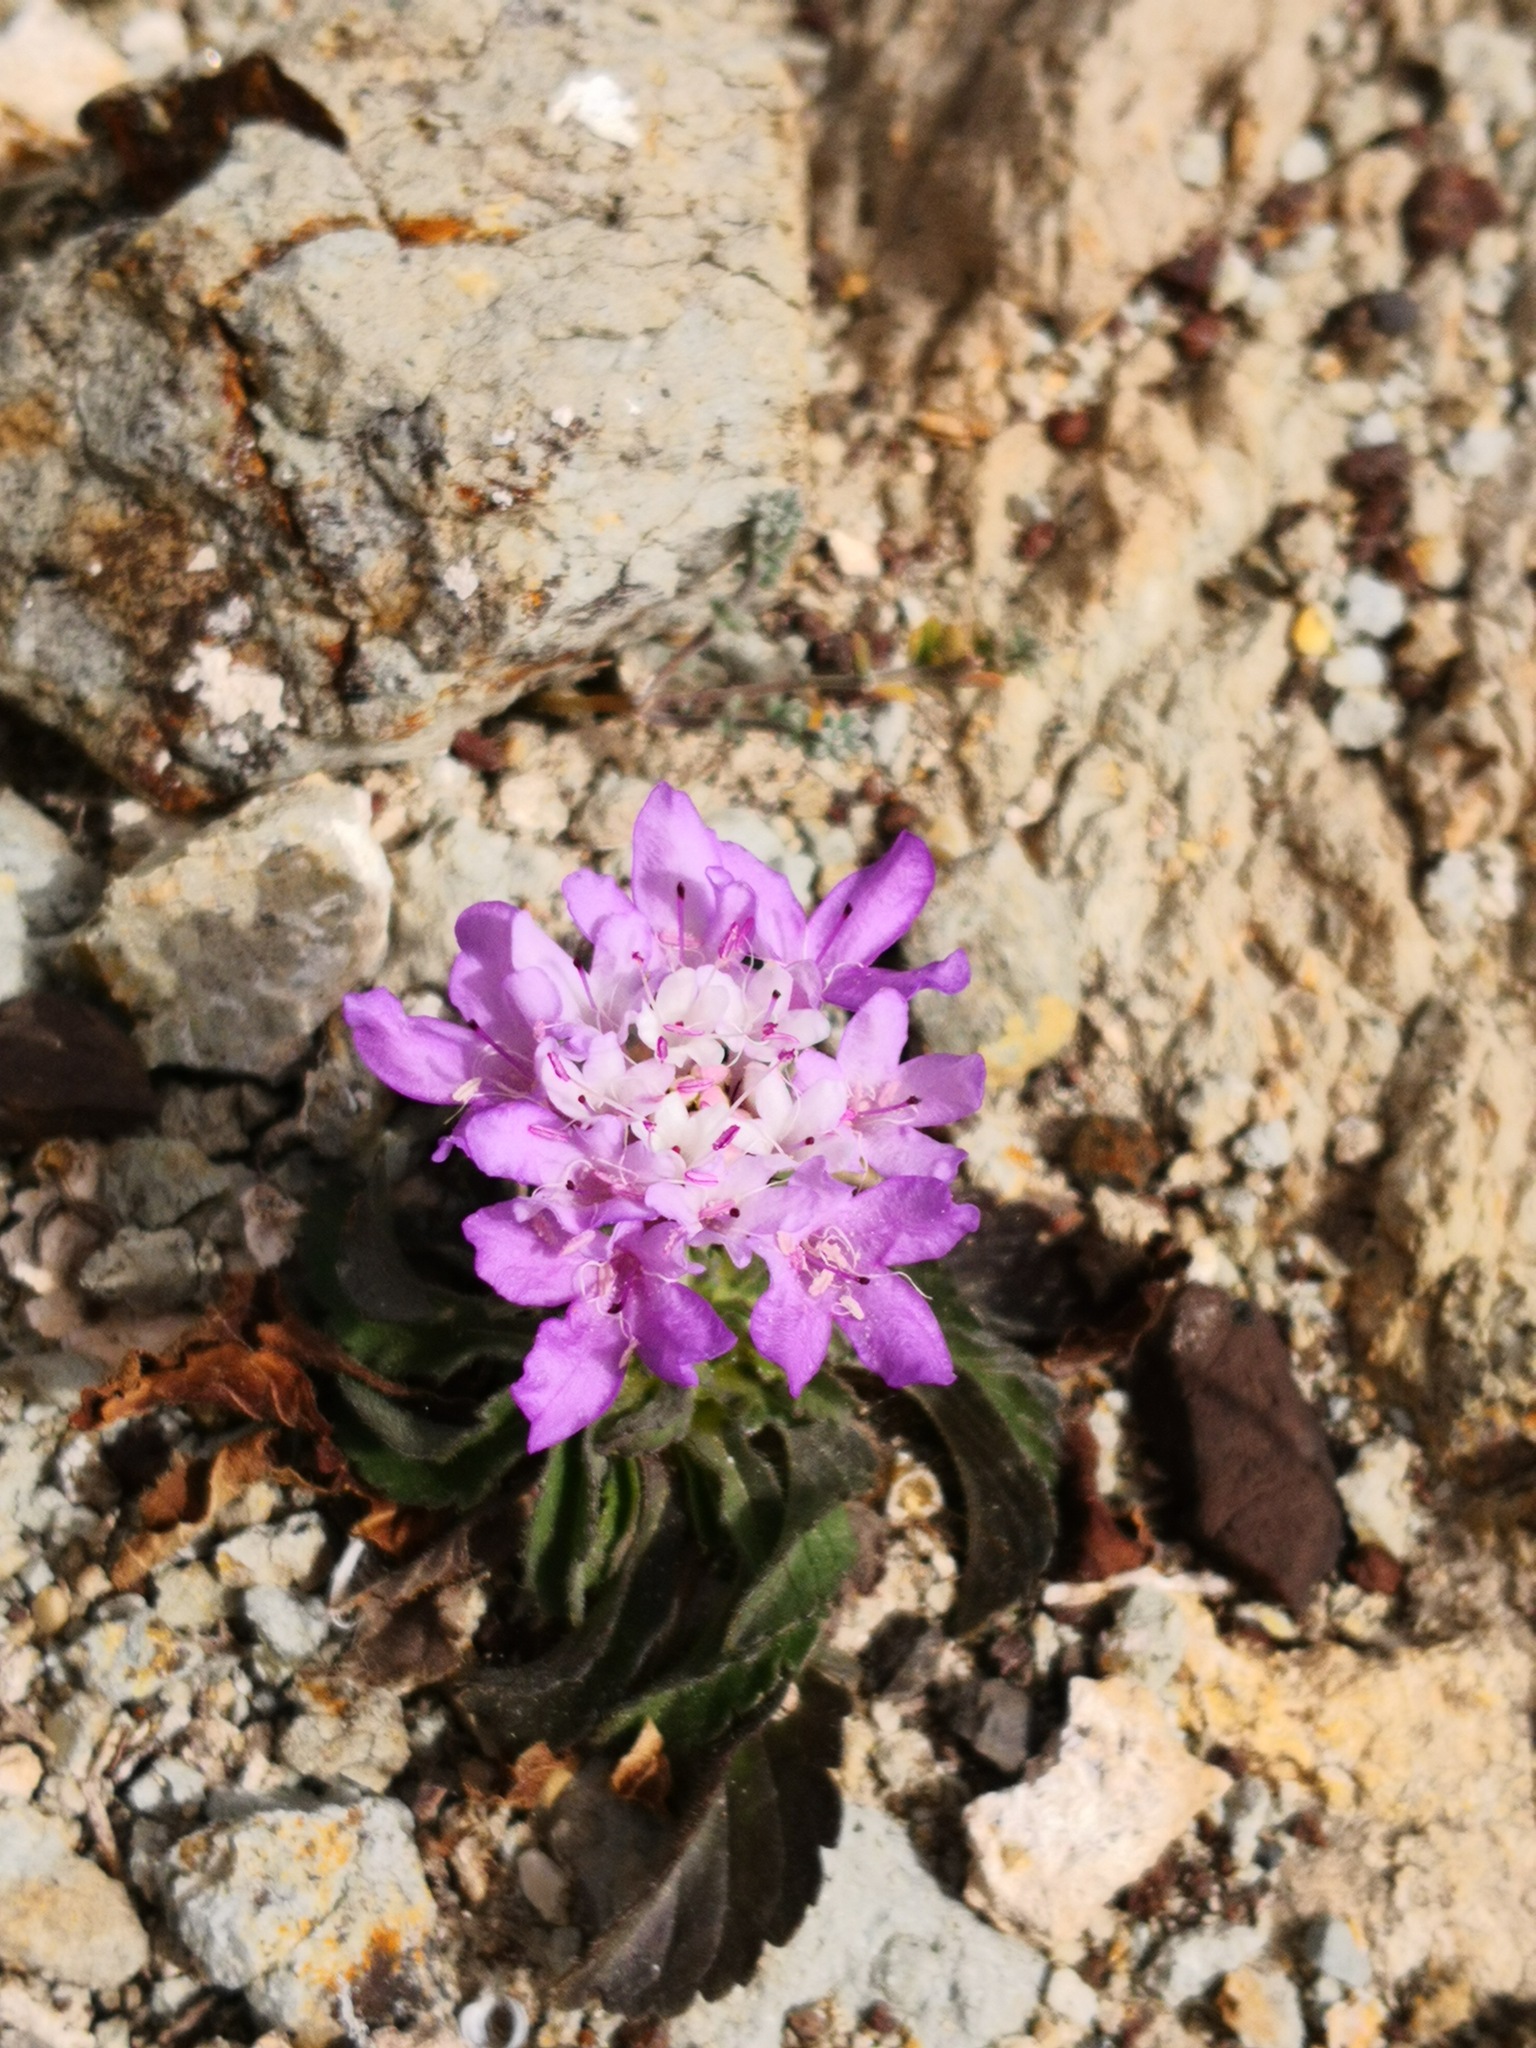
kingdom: Plantae
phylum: Tracheophyta
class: Magnoliopsida
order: Dipsacales
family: Caprifoliaceae
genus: Sixalix
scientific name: Sixalix atropurpurea
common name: Sweet scabious
